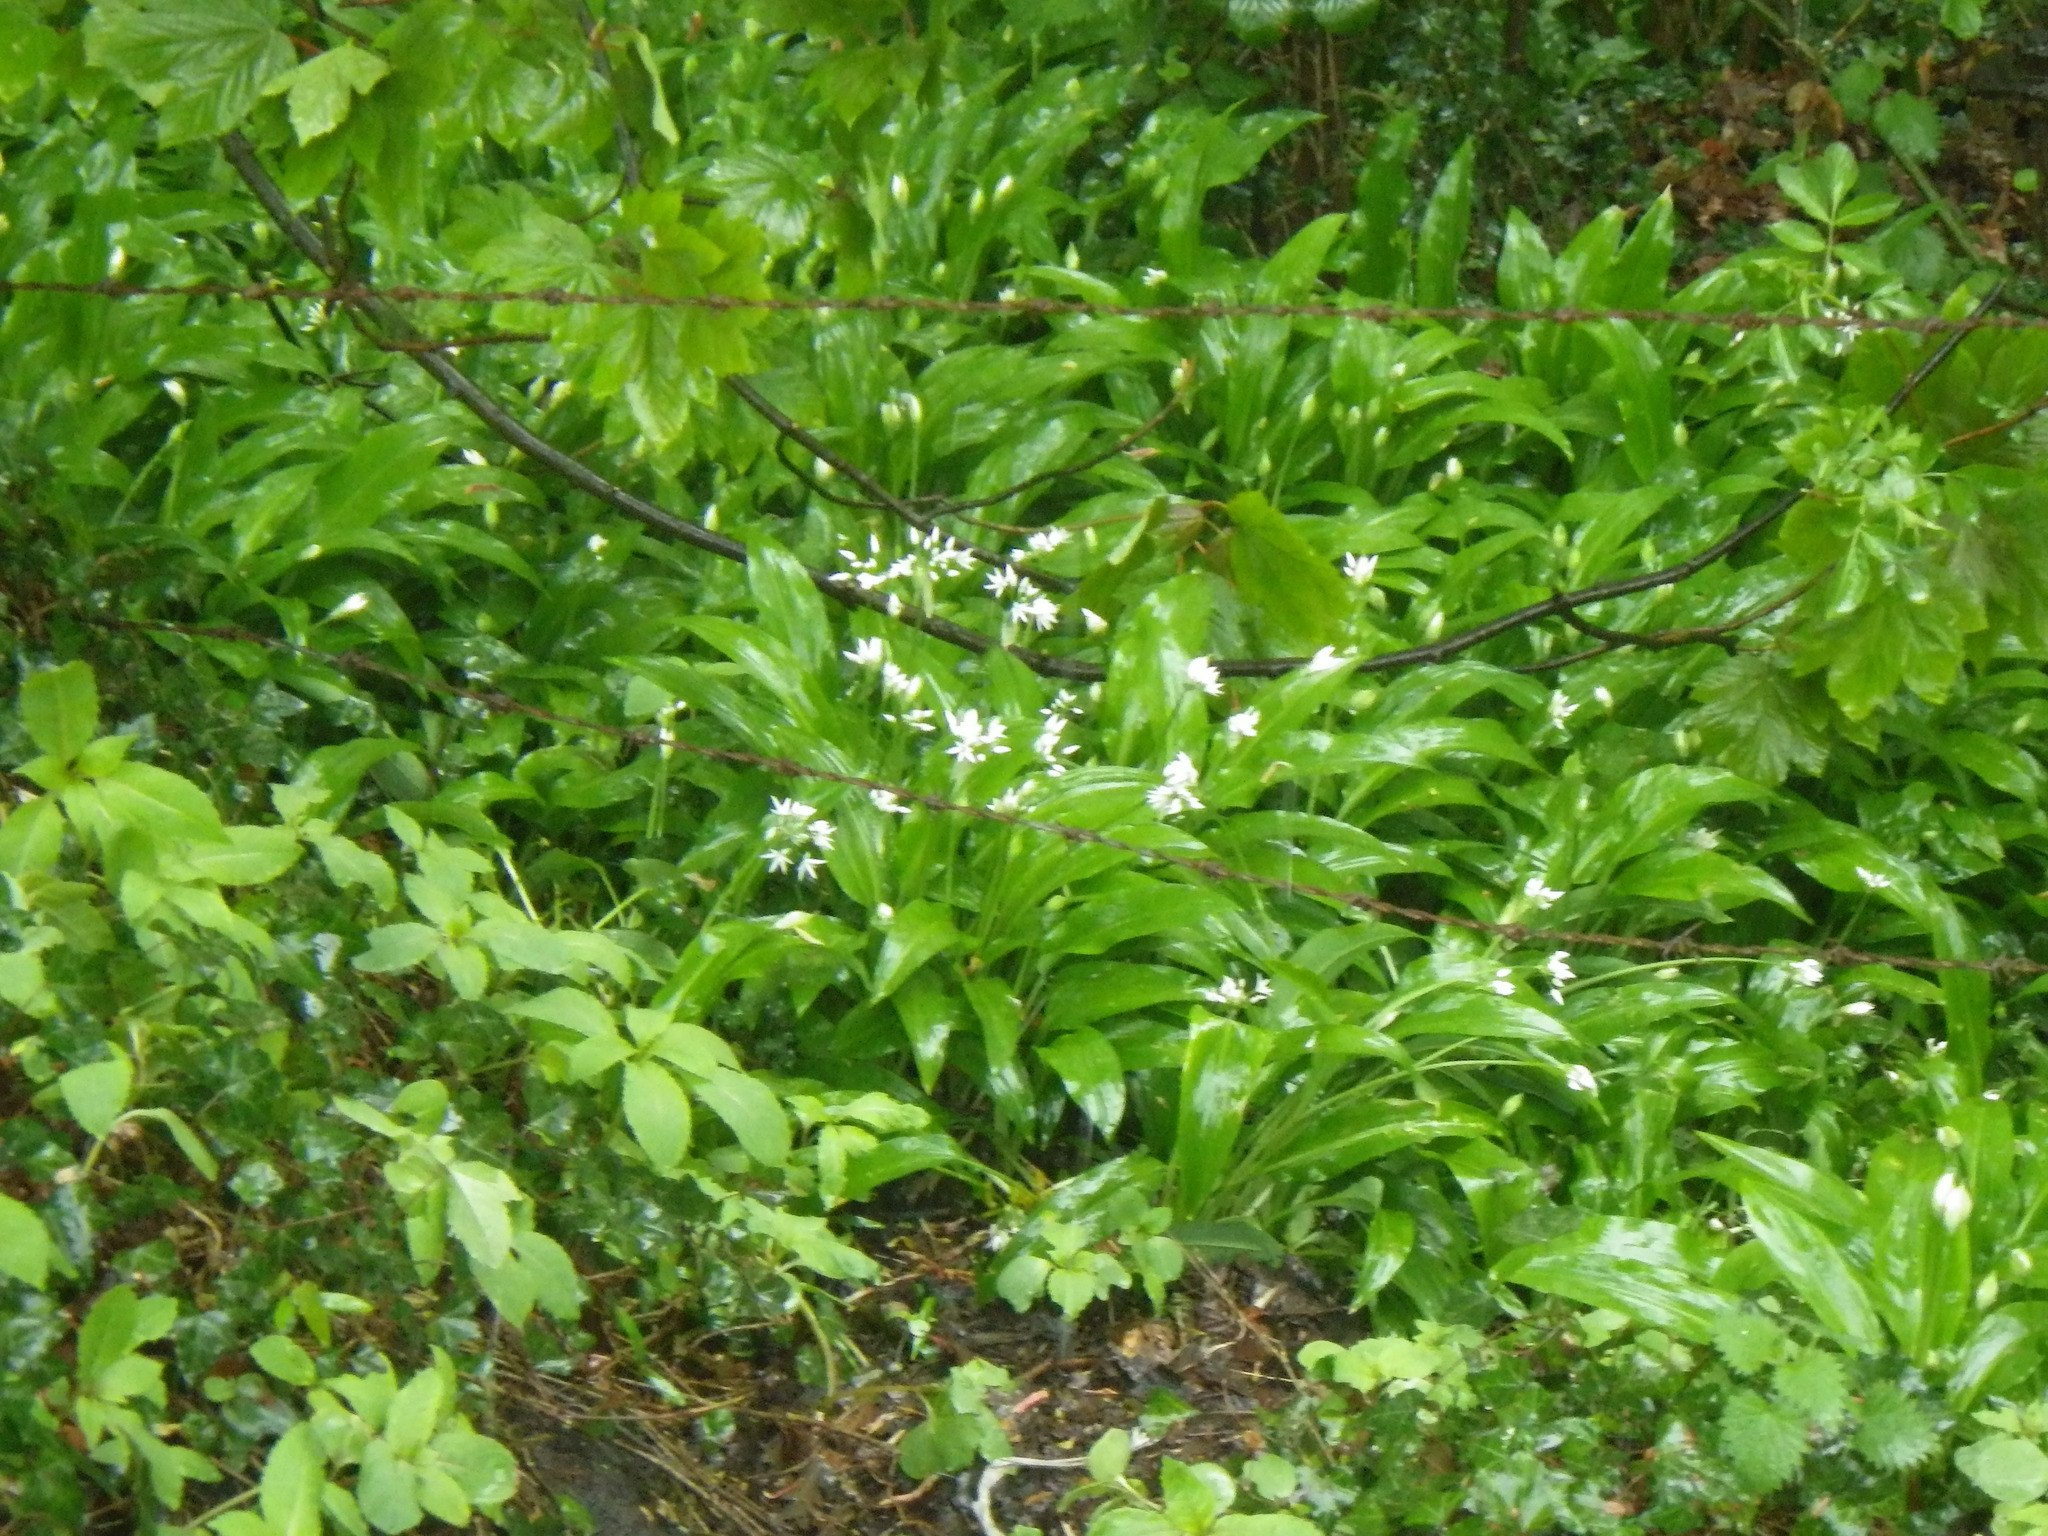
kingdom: Plantae
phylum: Tracheophyta
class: Liliopsida
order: Asparagales
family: Amaryllidaceae
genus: Allium
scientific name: Allium ursinum
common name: Ramsons
